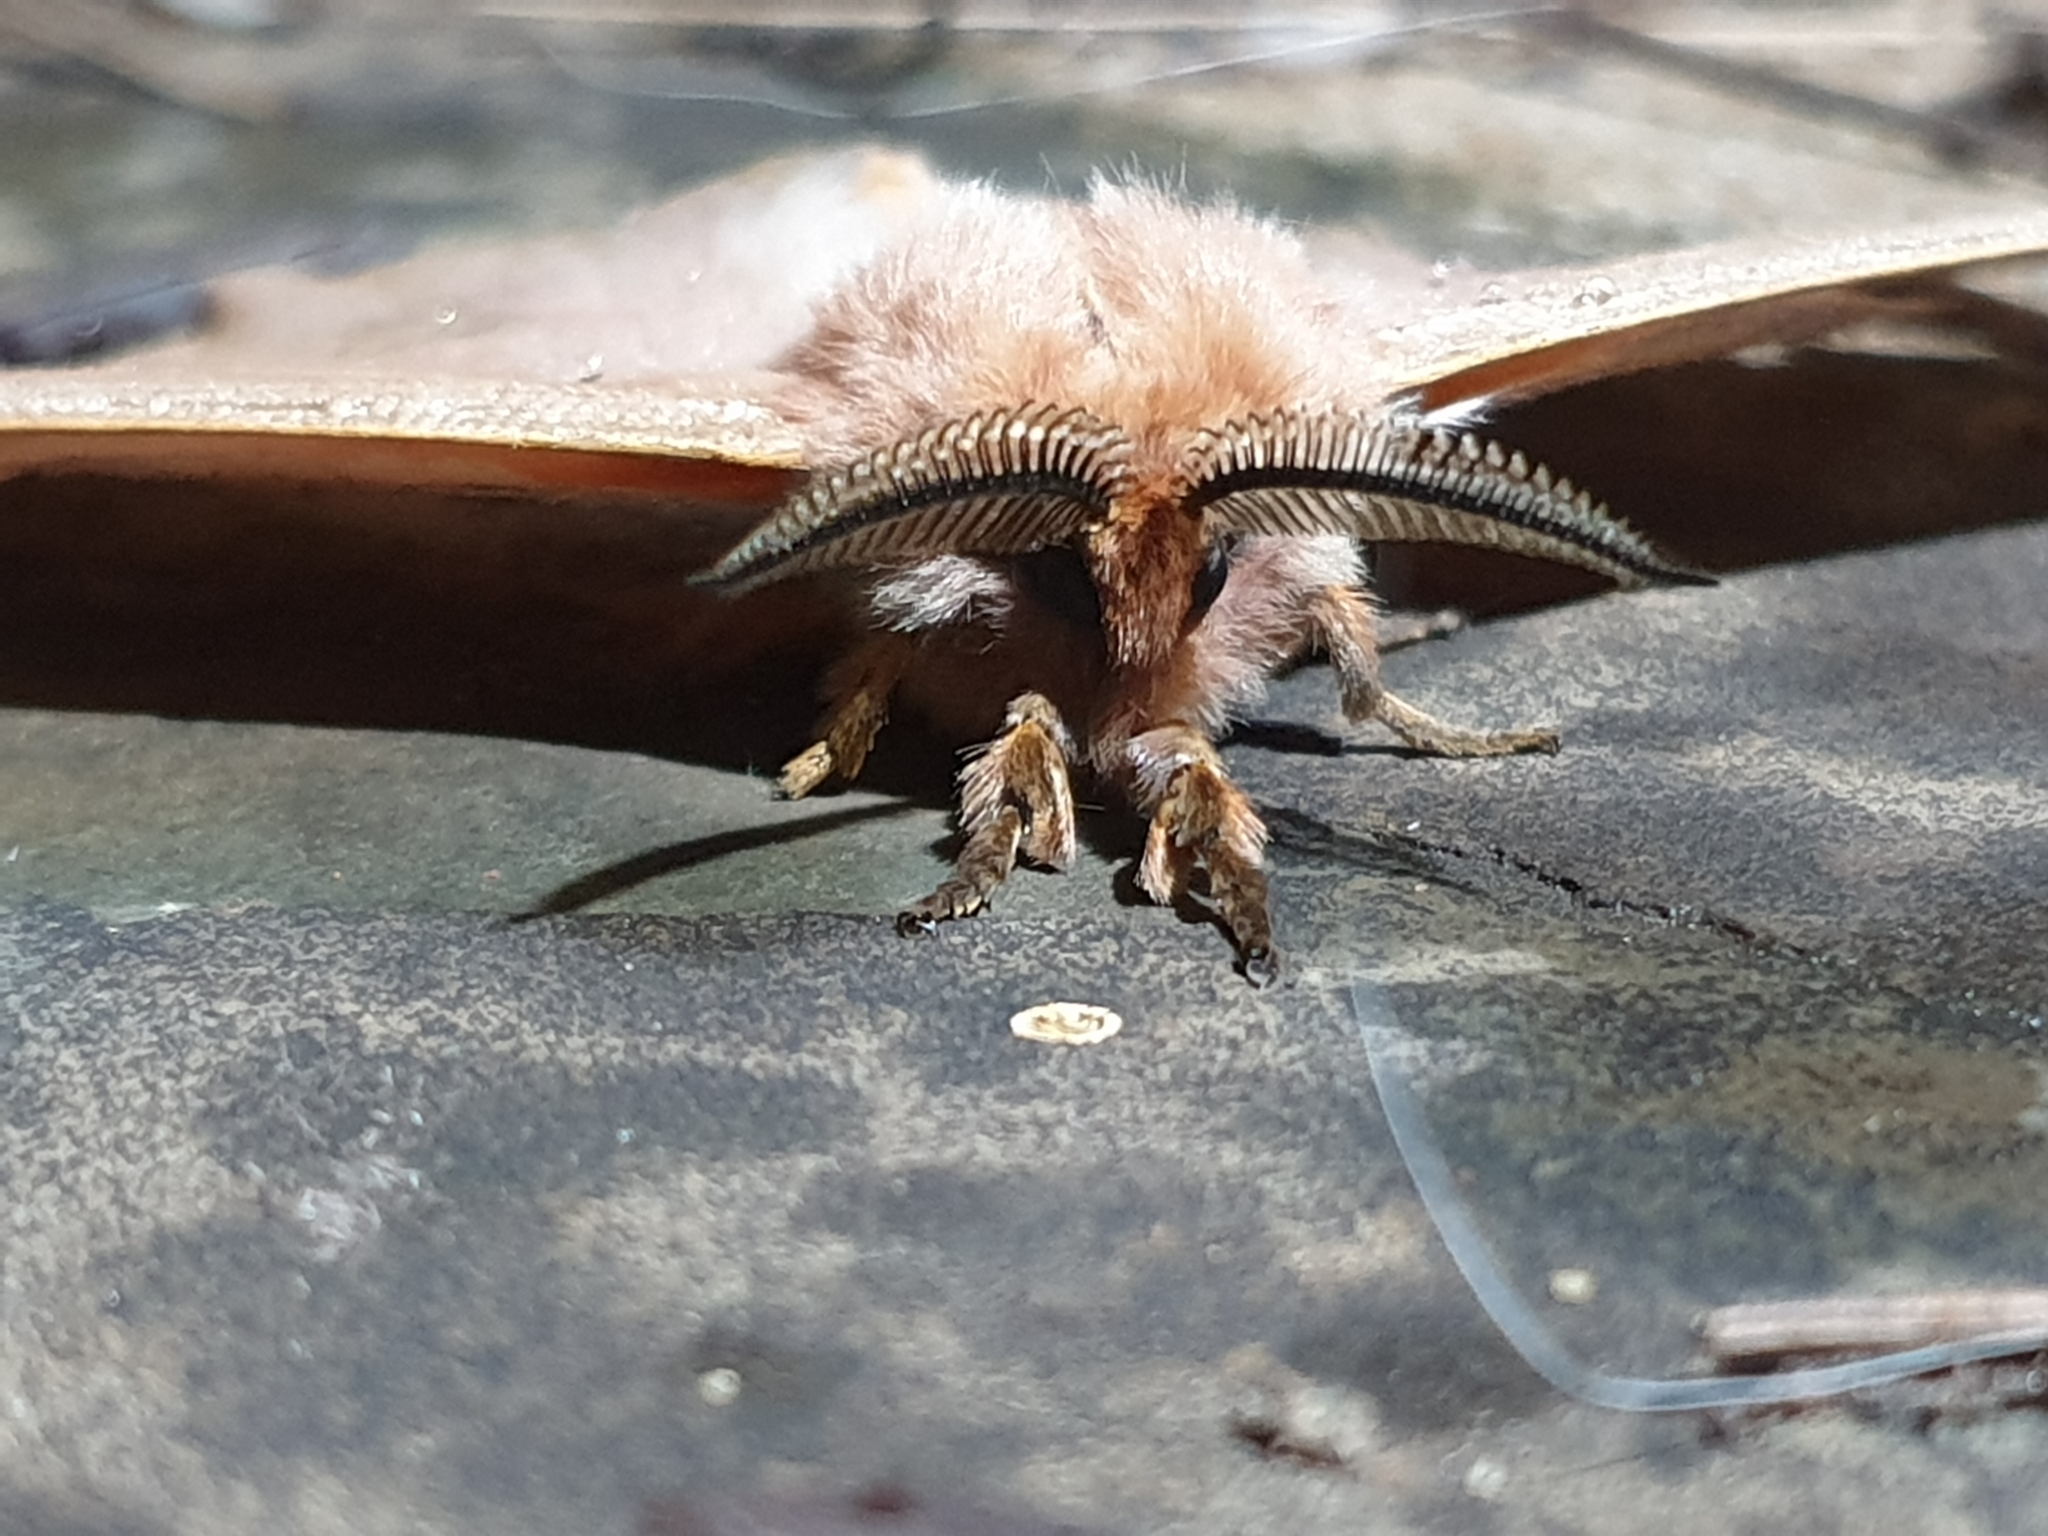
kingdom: Animalia
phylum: Arthropoda
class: Insecta
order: Lepidoptera
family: Saturniidae
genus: Cirina
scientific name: Cirina forda
